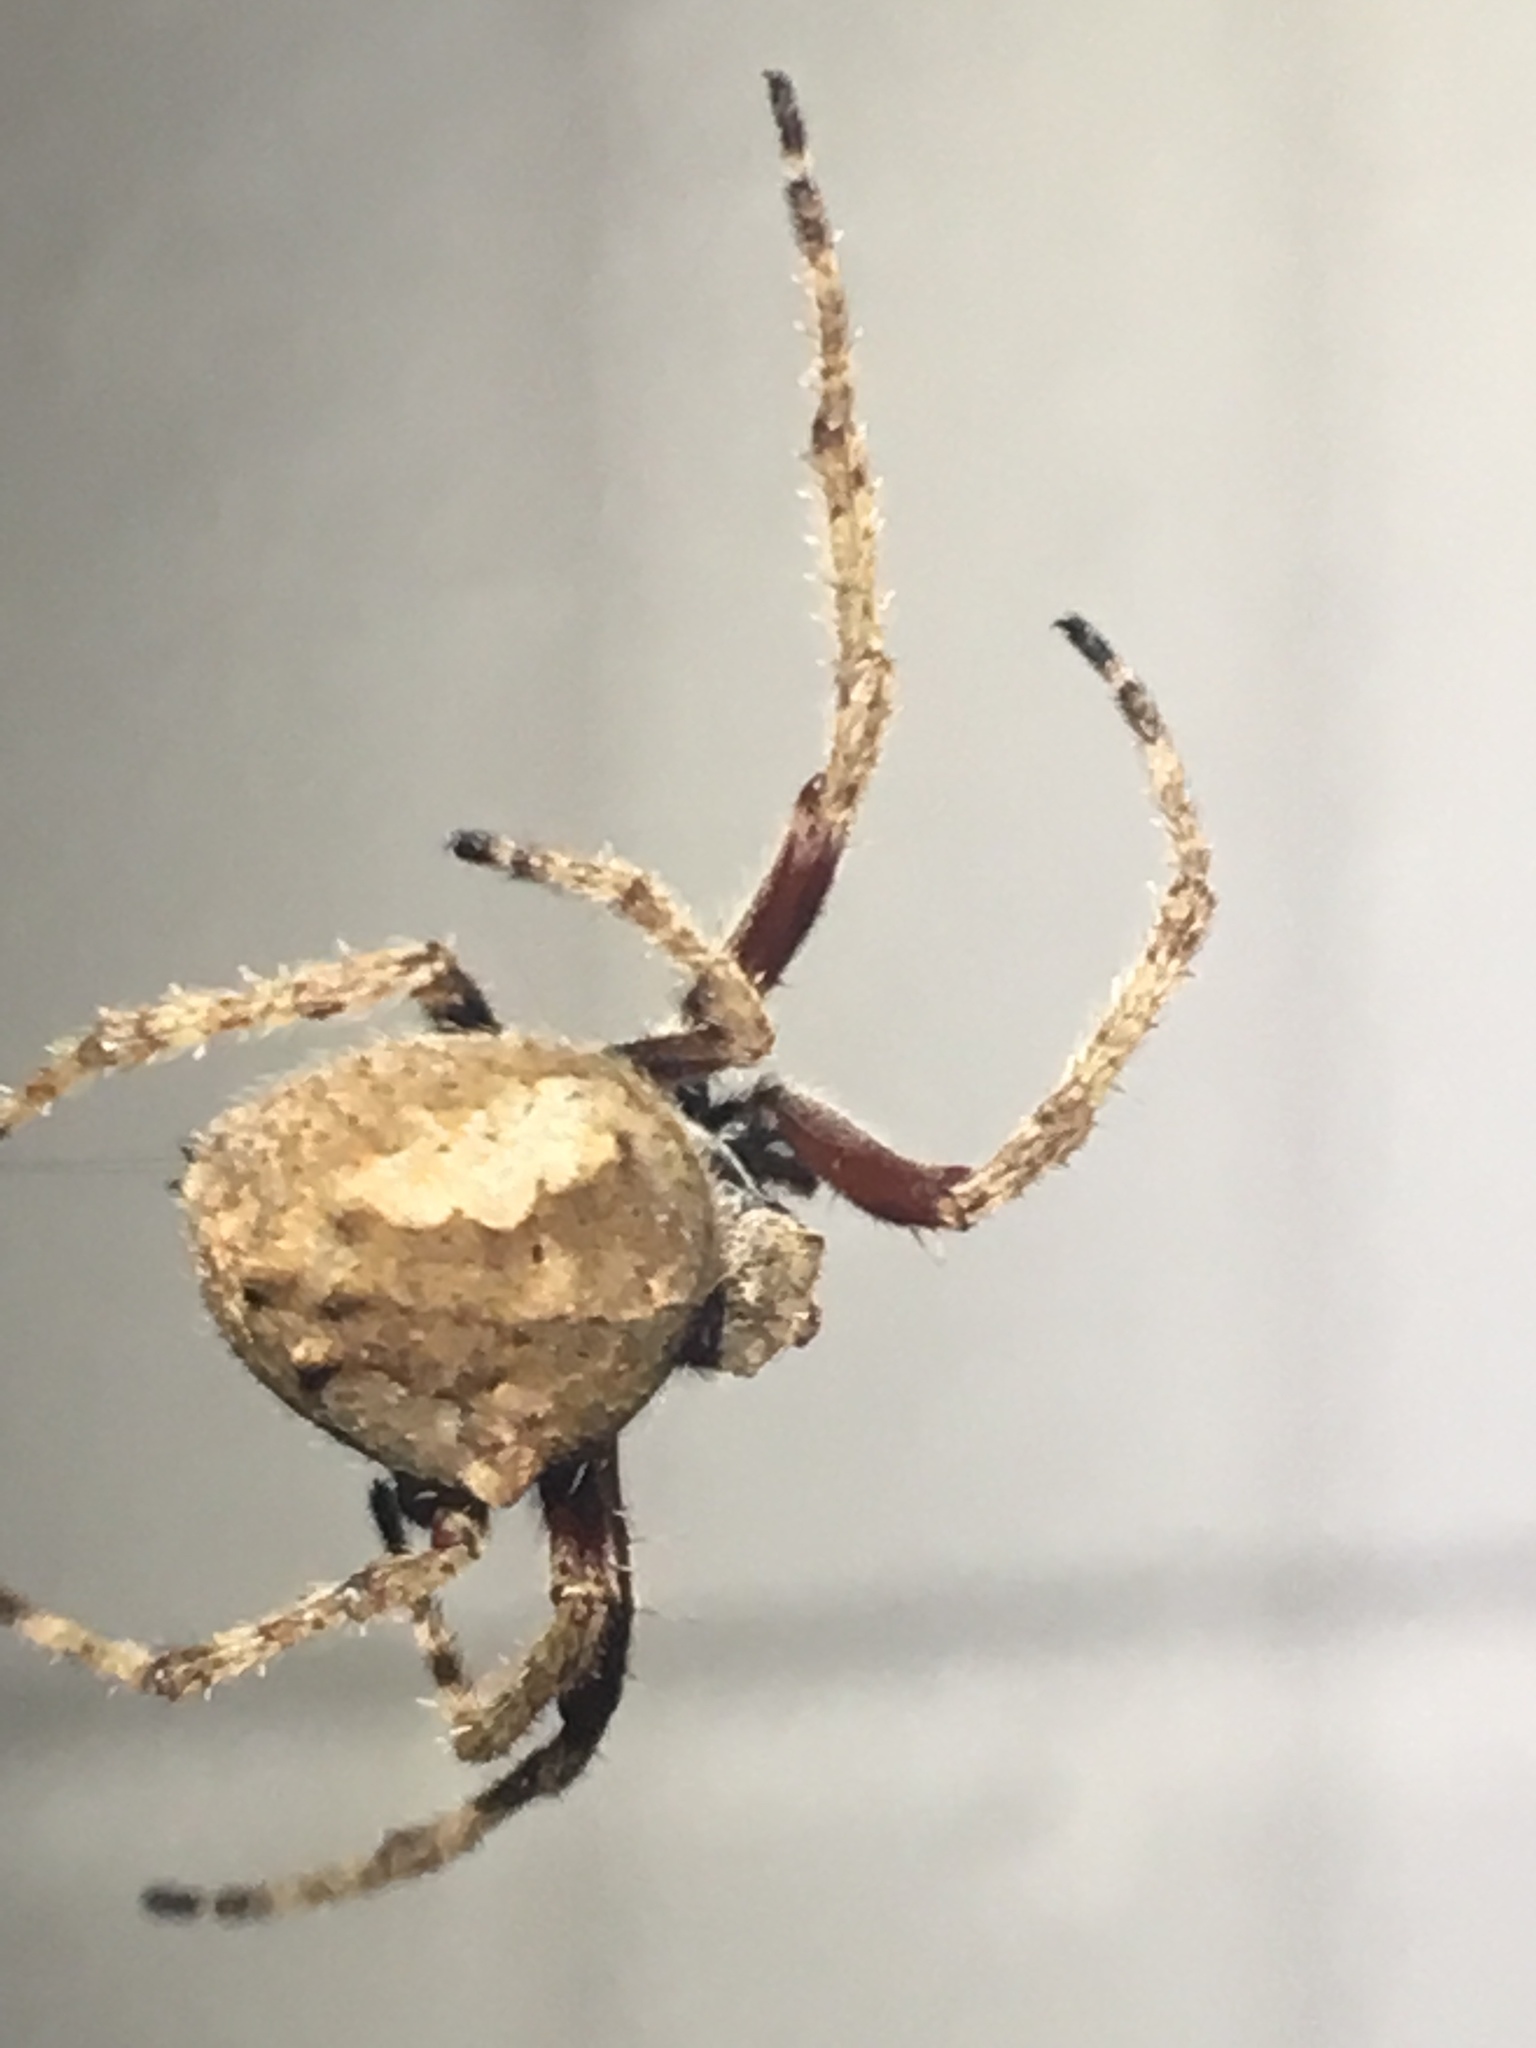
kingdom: Animalia
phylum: Arthropoda
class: Arachnida
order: Araneae
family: Araneidae
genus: Eriophora
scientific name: Eriophora pustulosa
